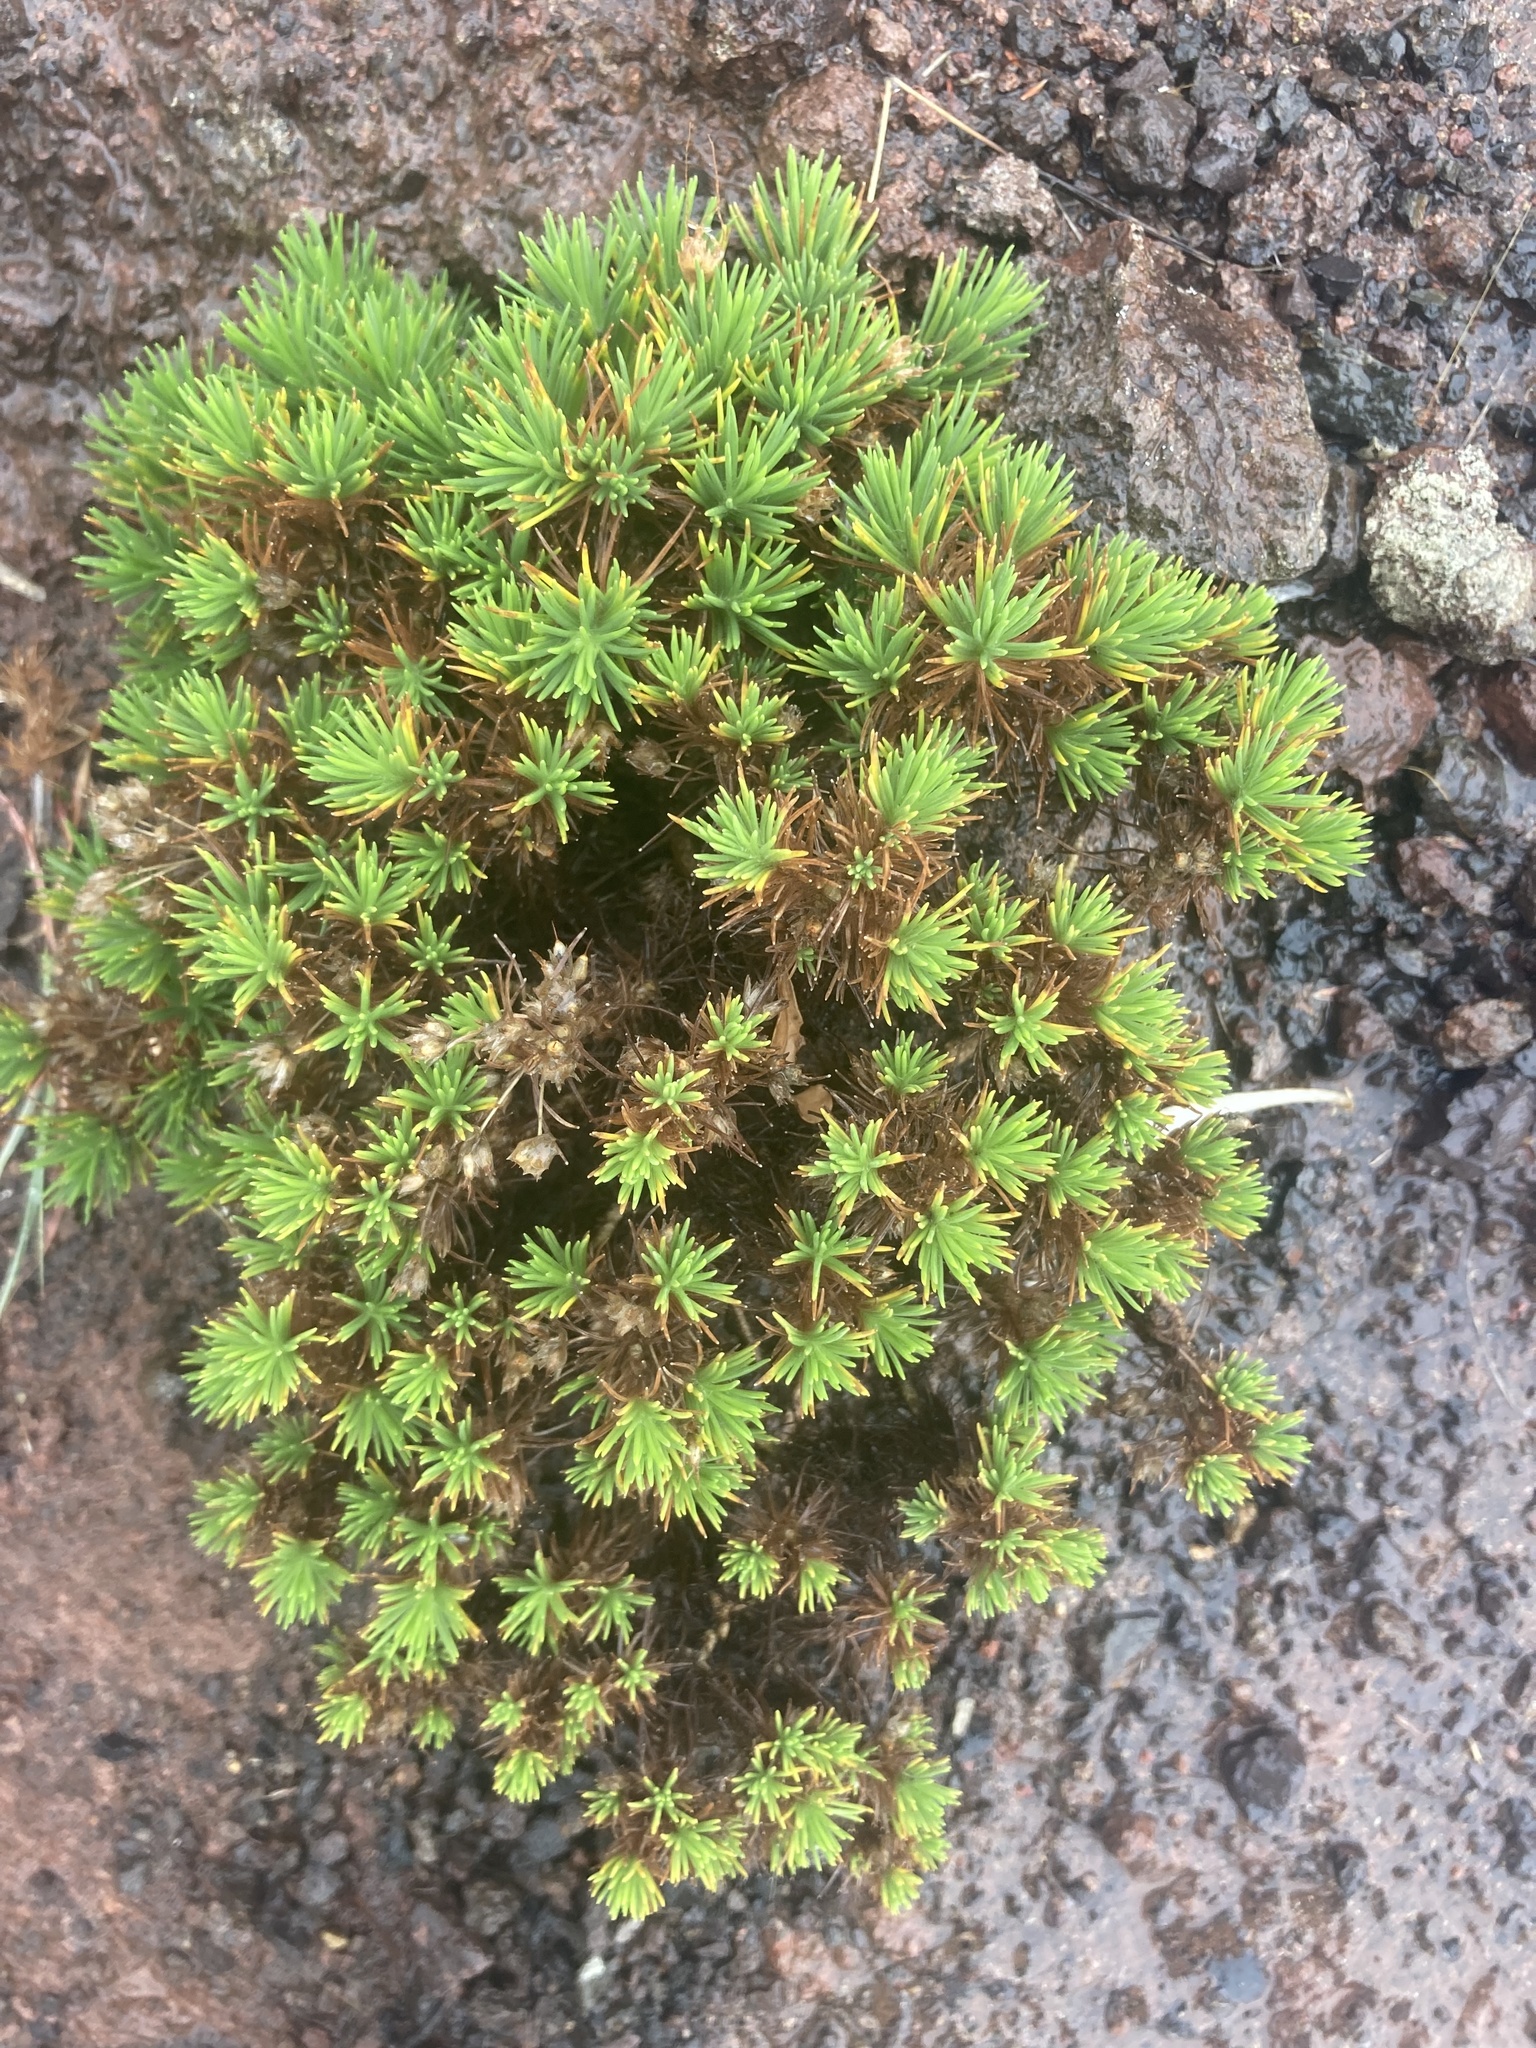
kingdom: Plantae
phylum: Tracheophyta
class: Magnoliopsida
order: Lamiales
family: Plantaginaceae
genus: Plantago
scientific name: Plantago arborescens
